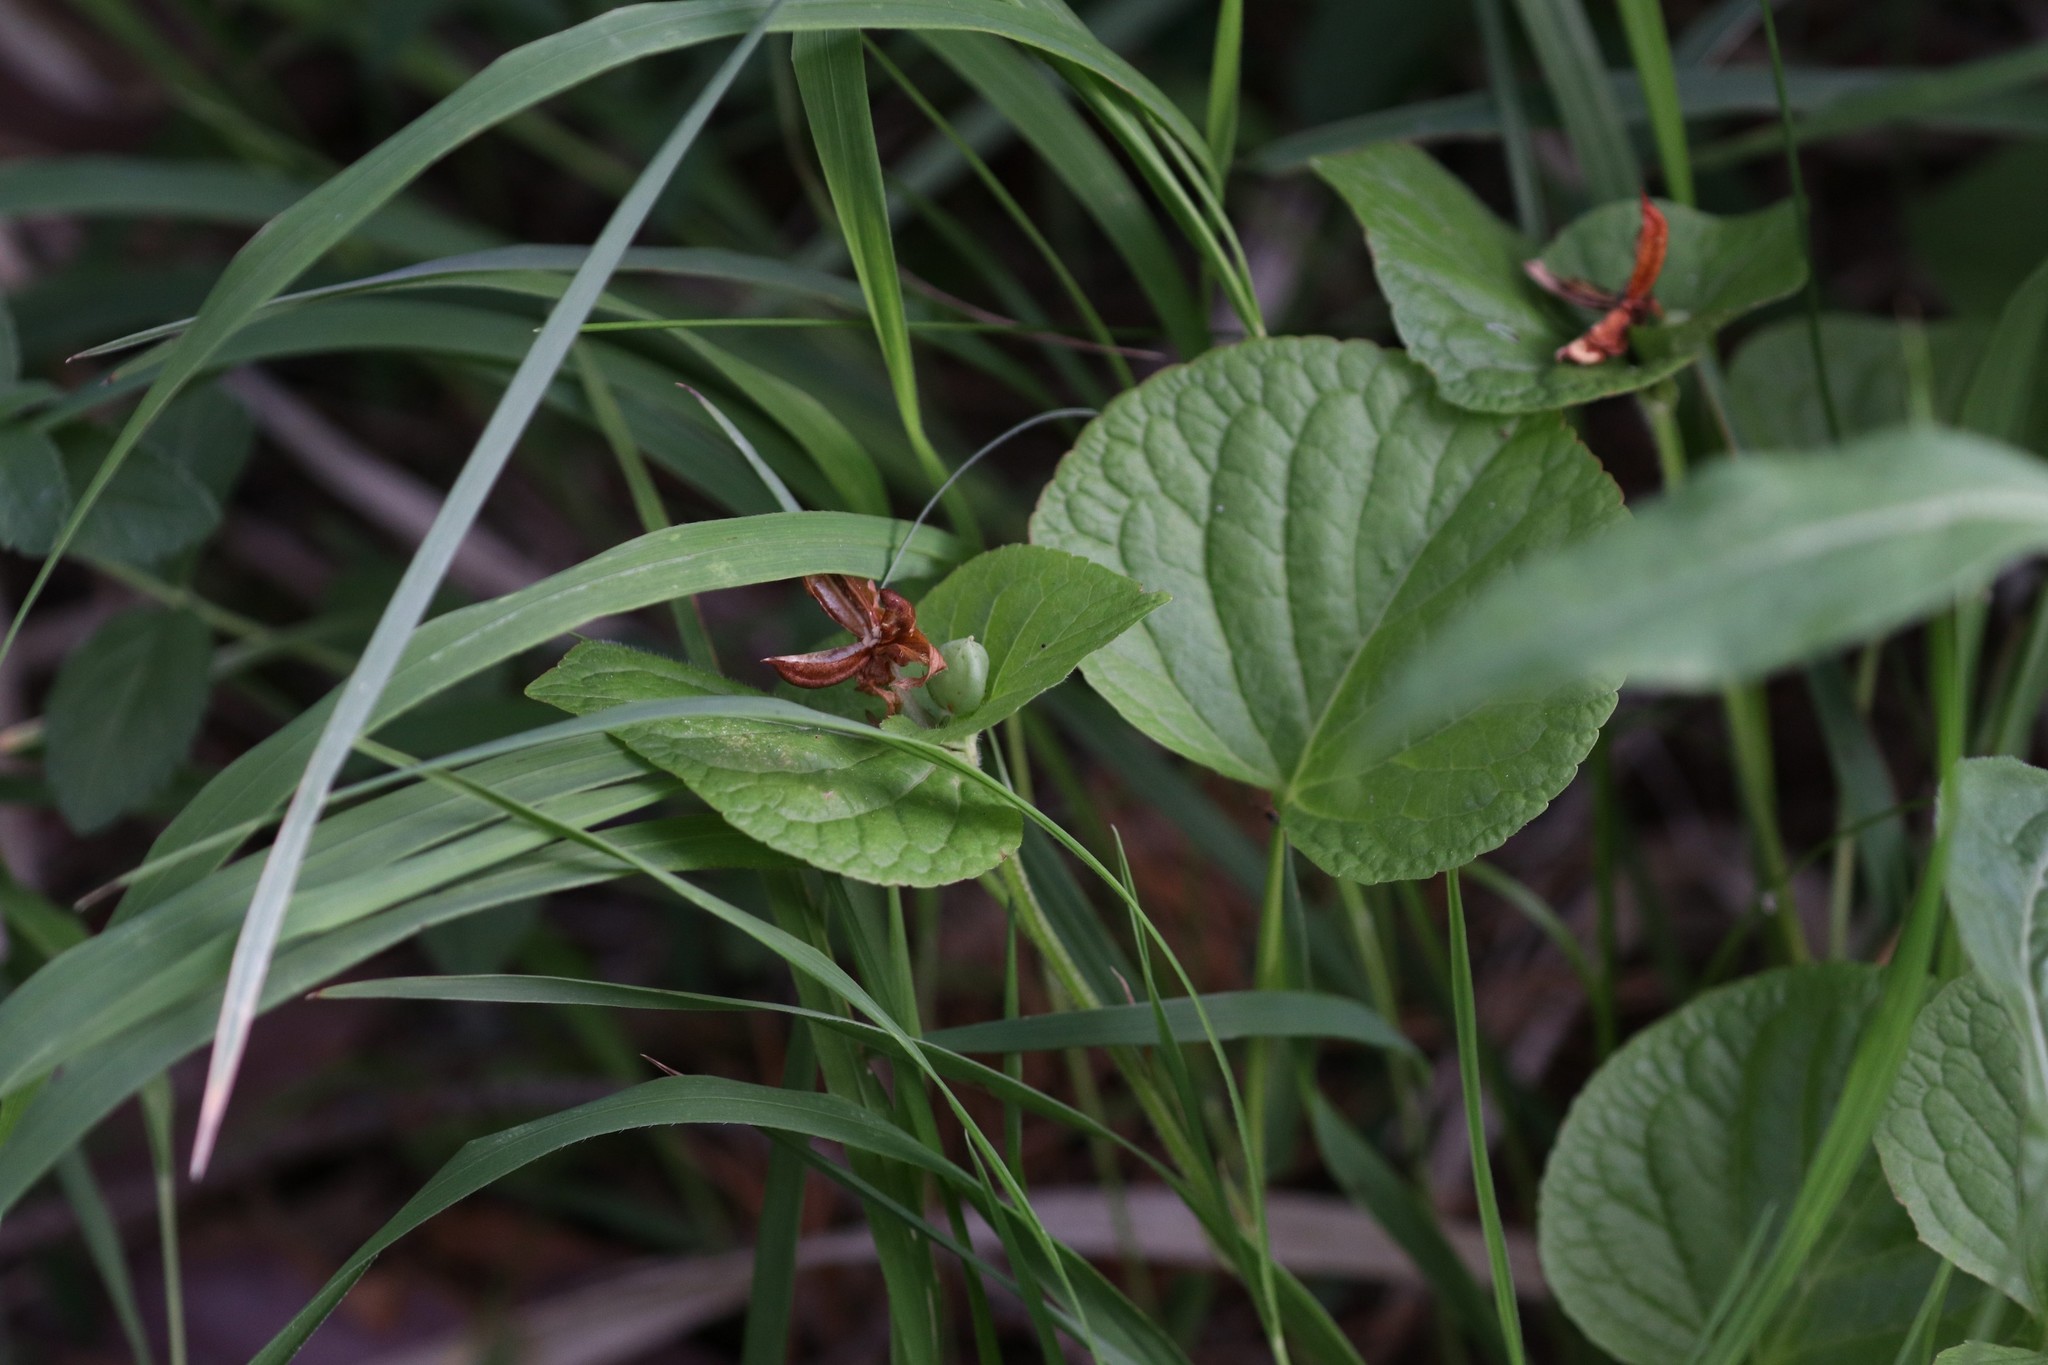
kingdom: Plantae
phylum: Tracheophyta
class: Magnoliopsida
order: Malpighiales
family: Violaceae
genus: Viola
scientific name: Viola mirabilis
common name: Wonder violet
